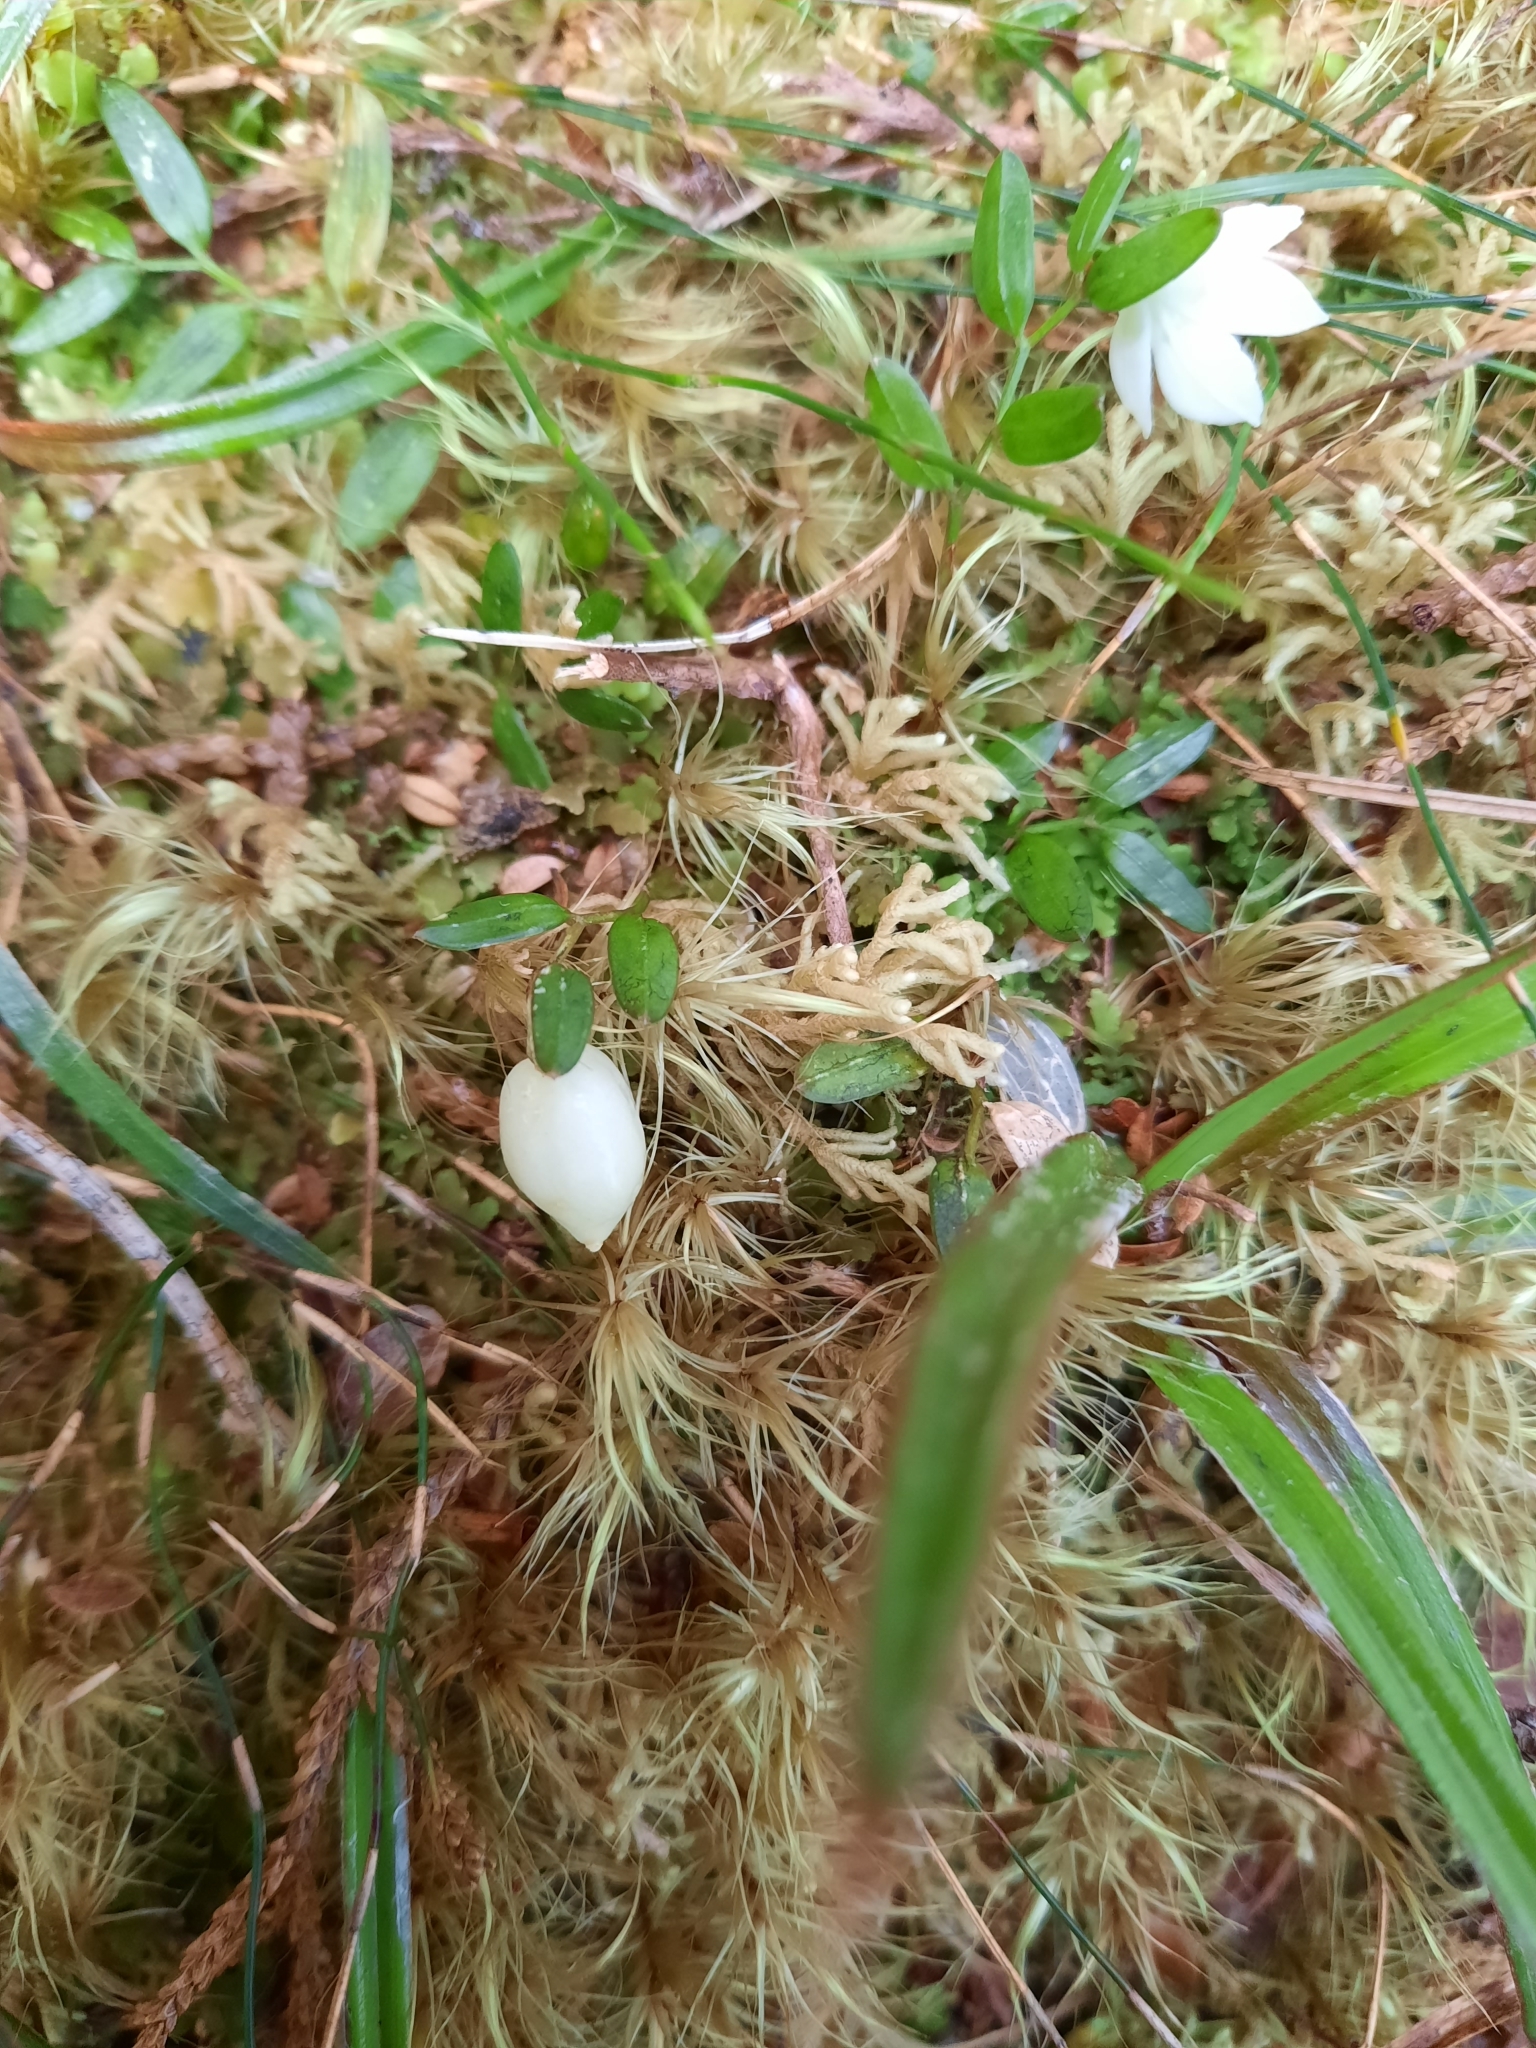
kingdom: Plantae
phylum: Tracheophyta
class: Liliopsida
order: Liliales
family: Alstroemeriaceae
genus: Luzuriaga
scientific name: Luzuriaga parviflora
